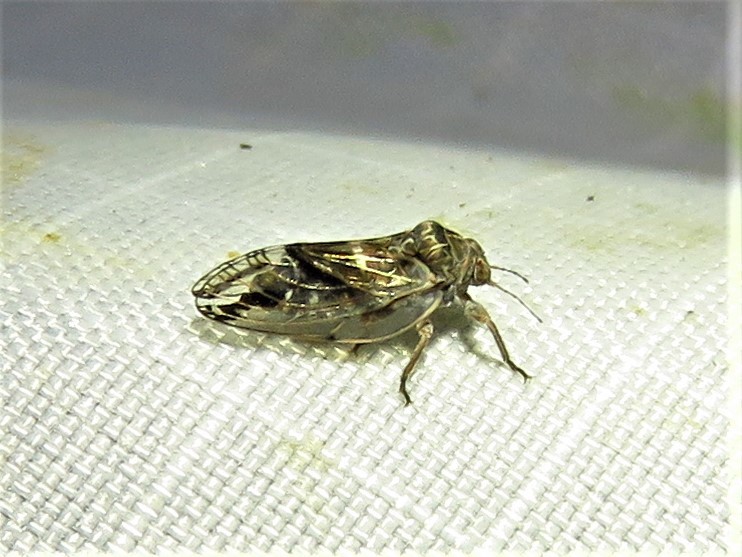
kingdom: Animalia
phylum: Arthropoda
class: Insecta
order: Hemiptera
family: Aphalaridae
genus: Pachypsylla
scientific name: Pachypsylla venusta
